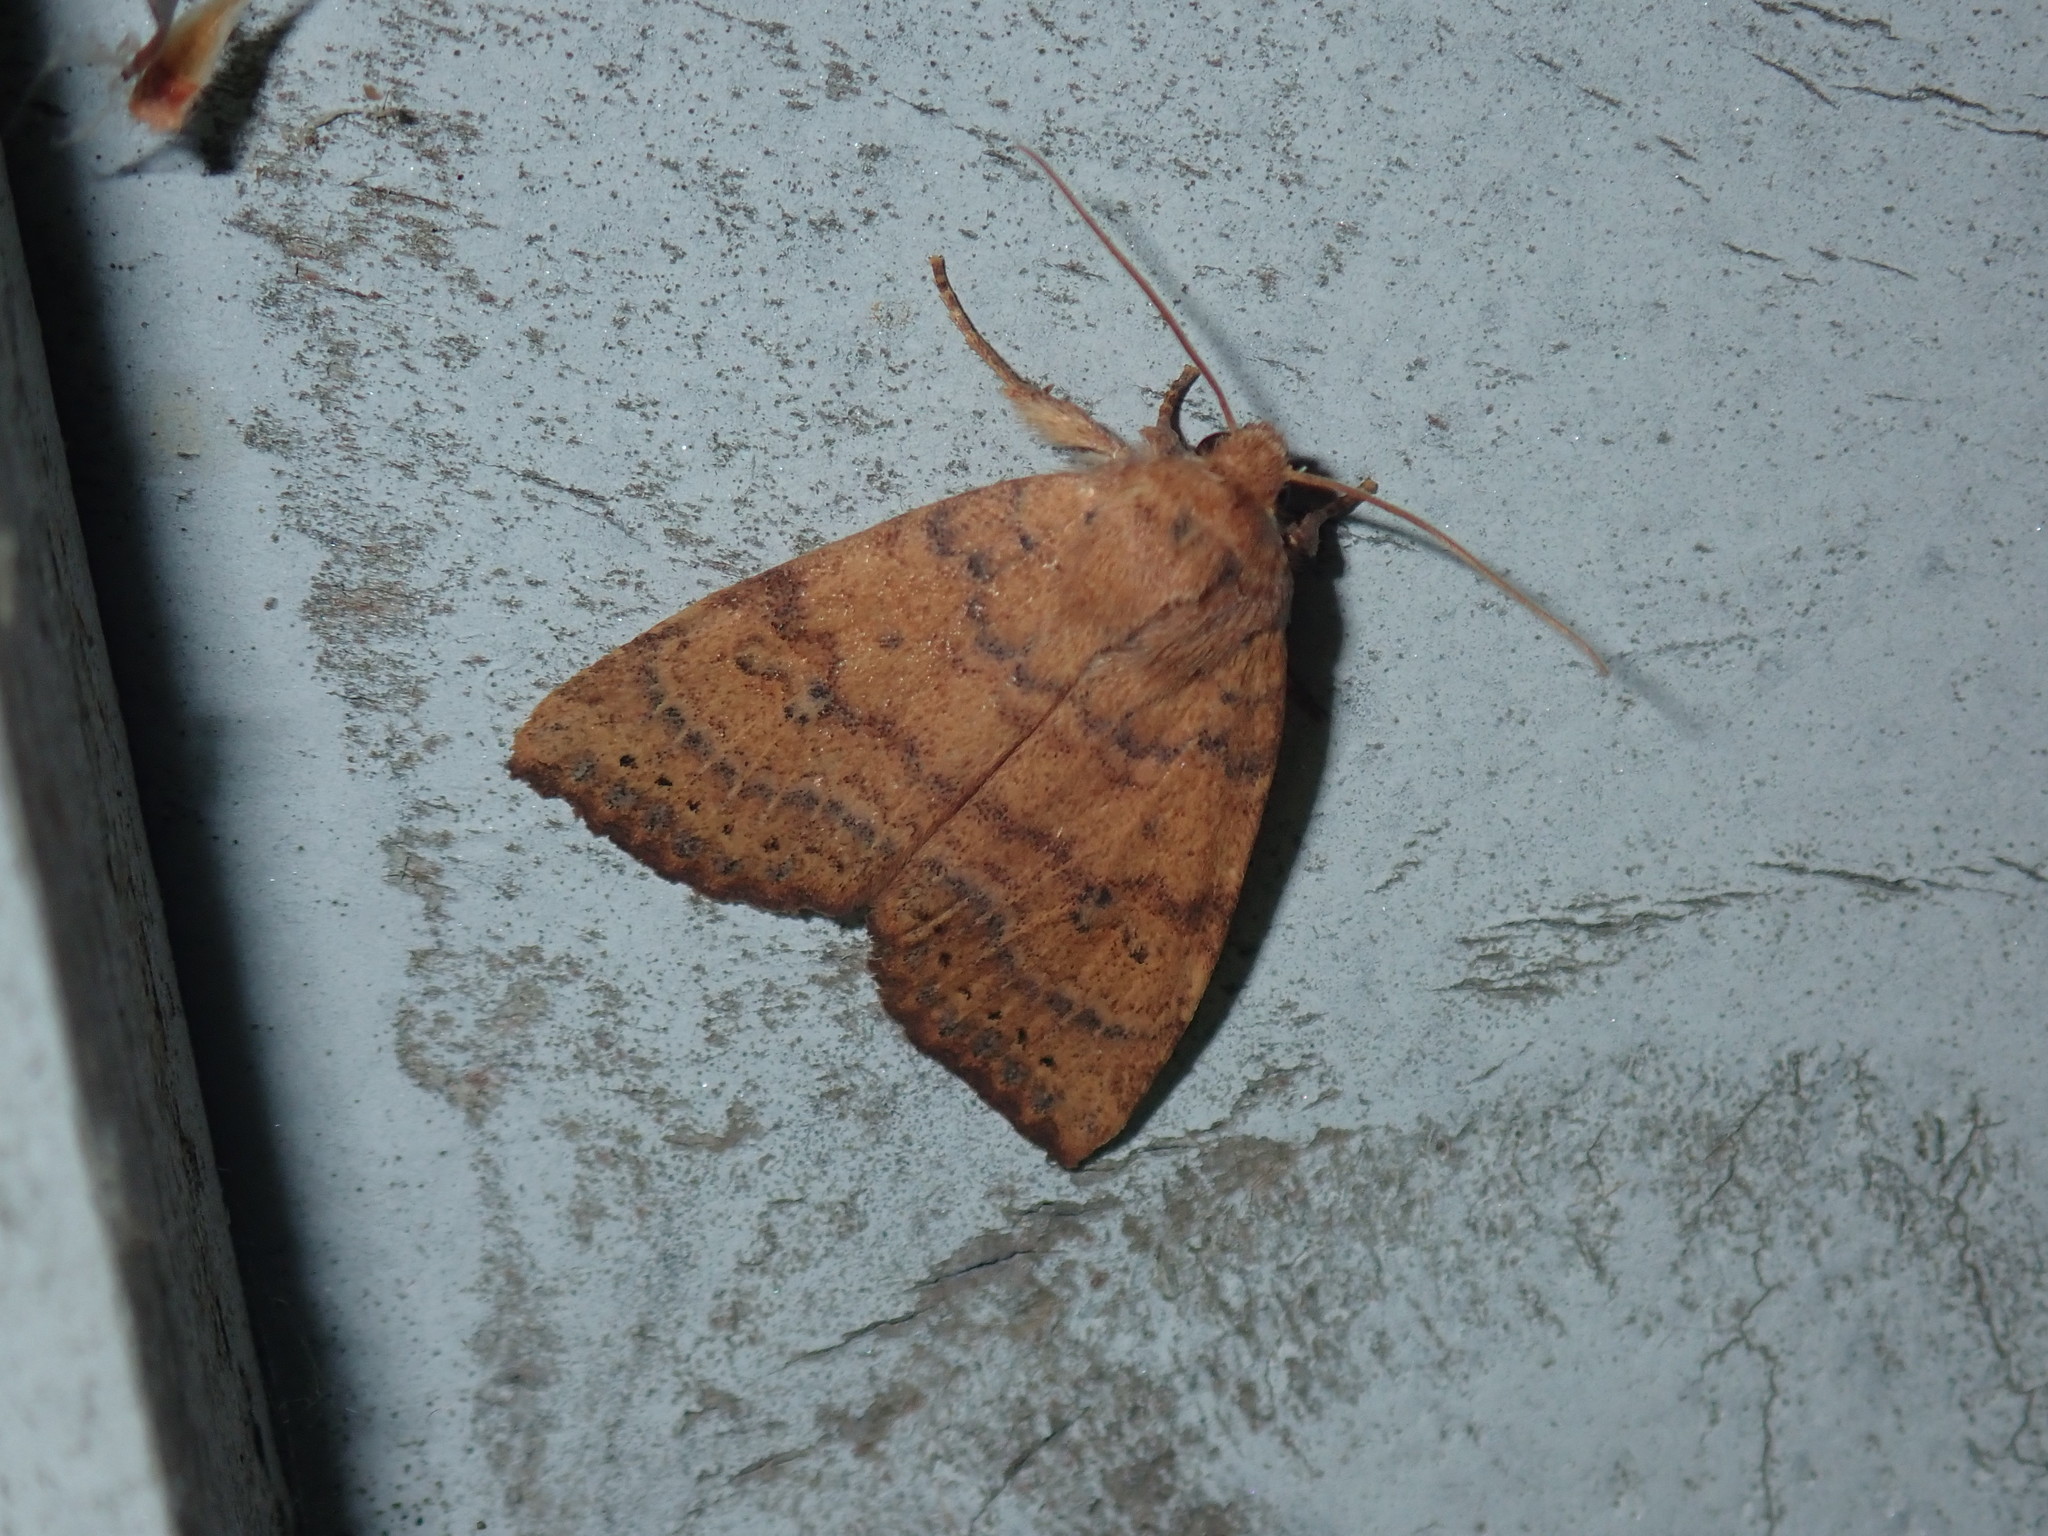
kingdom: Animalia
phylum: Arthropoda
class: Insecta
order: Lepidoptera
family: Noctuidae
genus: Anathix
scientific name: Anathix ralla
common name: Dotted sallow
